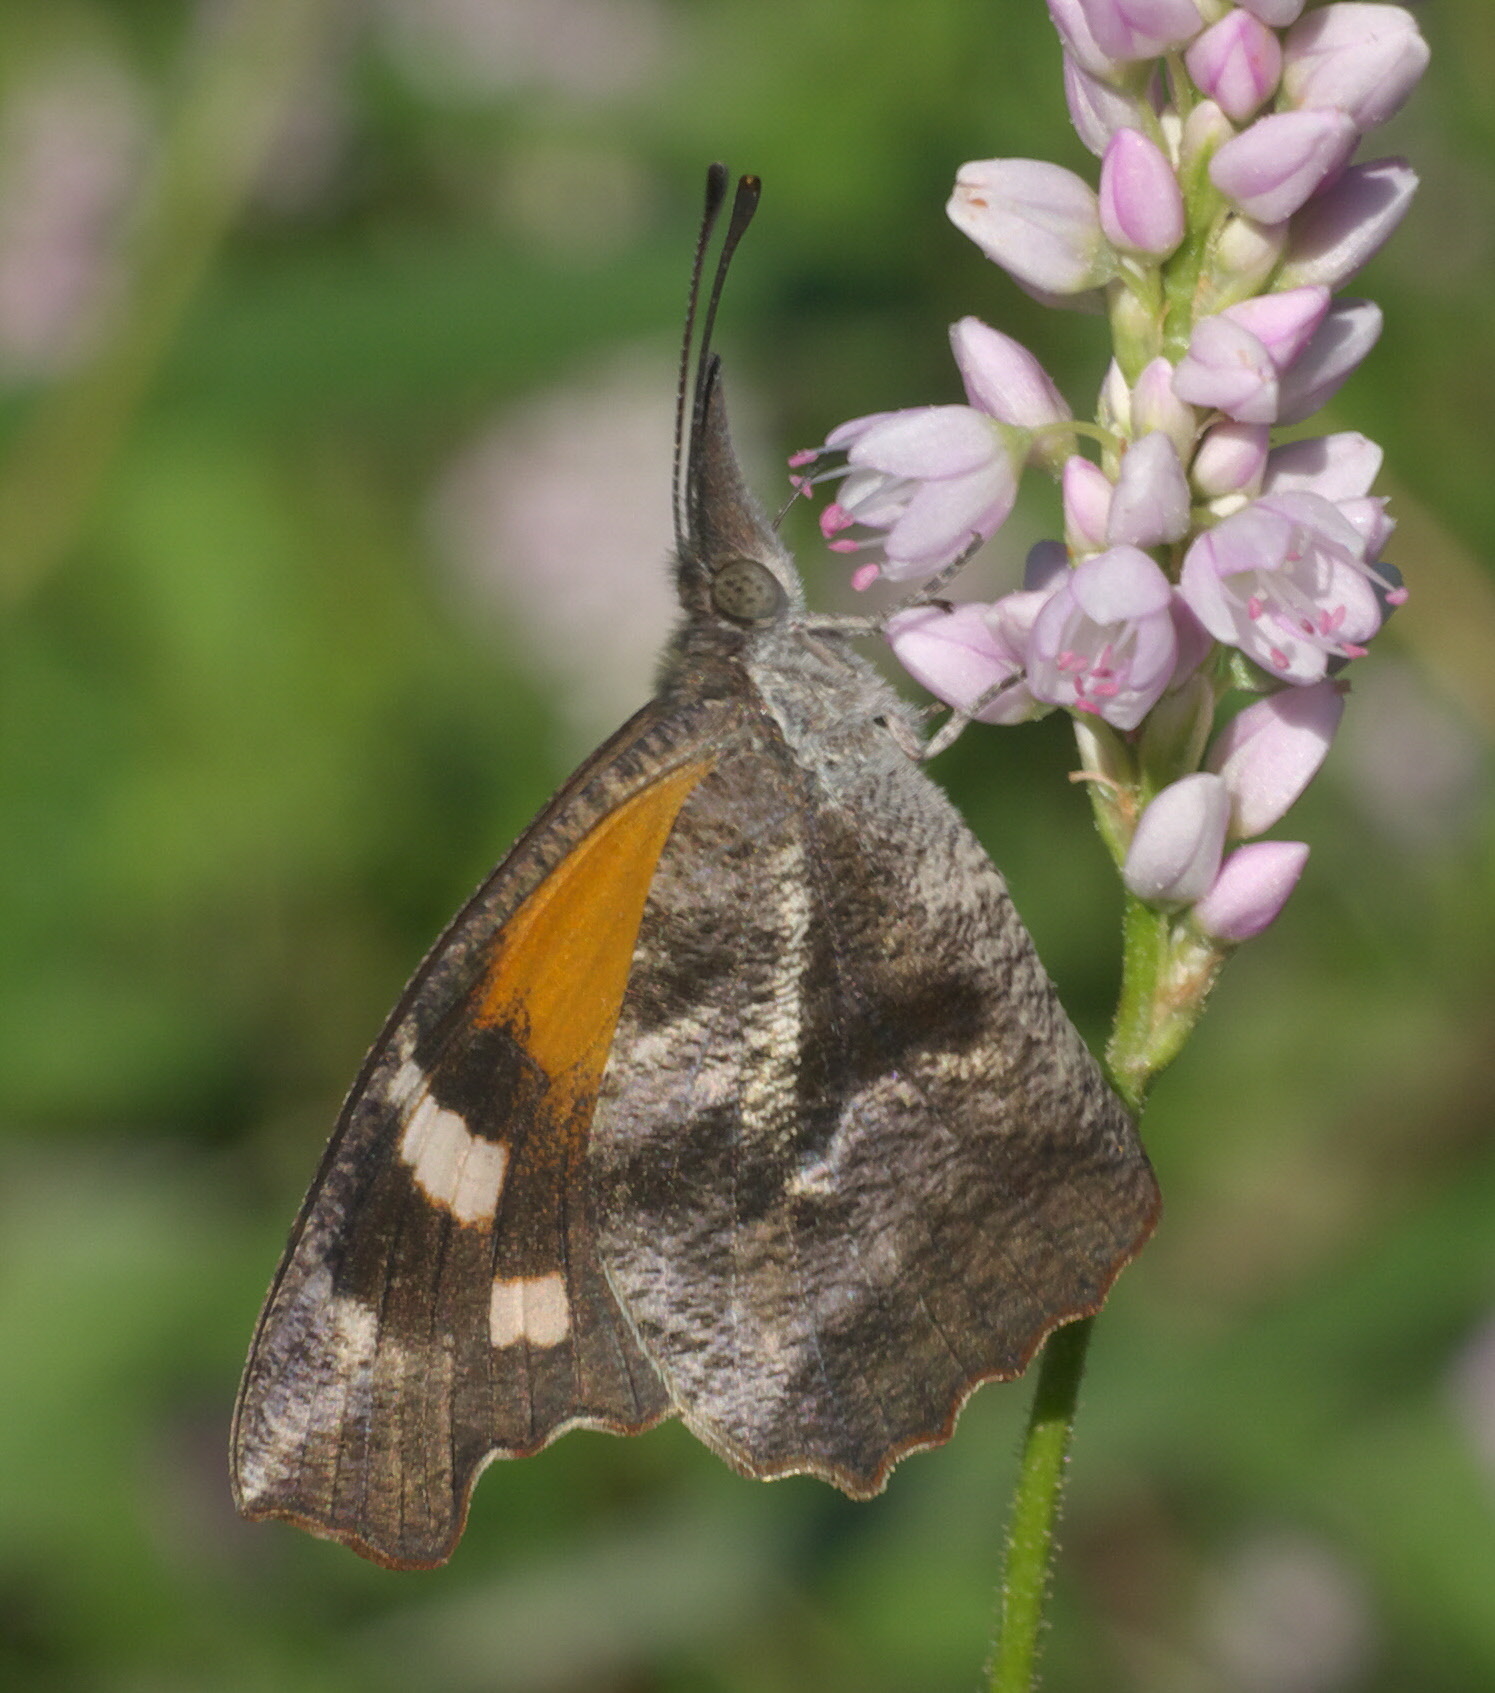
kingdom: Animalia
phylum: Arthropoda
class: Insecta
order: Lepidoptera
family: Nymphalidae
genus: Libytheana
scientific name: Libytheana carinenta
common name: American snout
